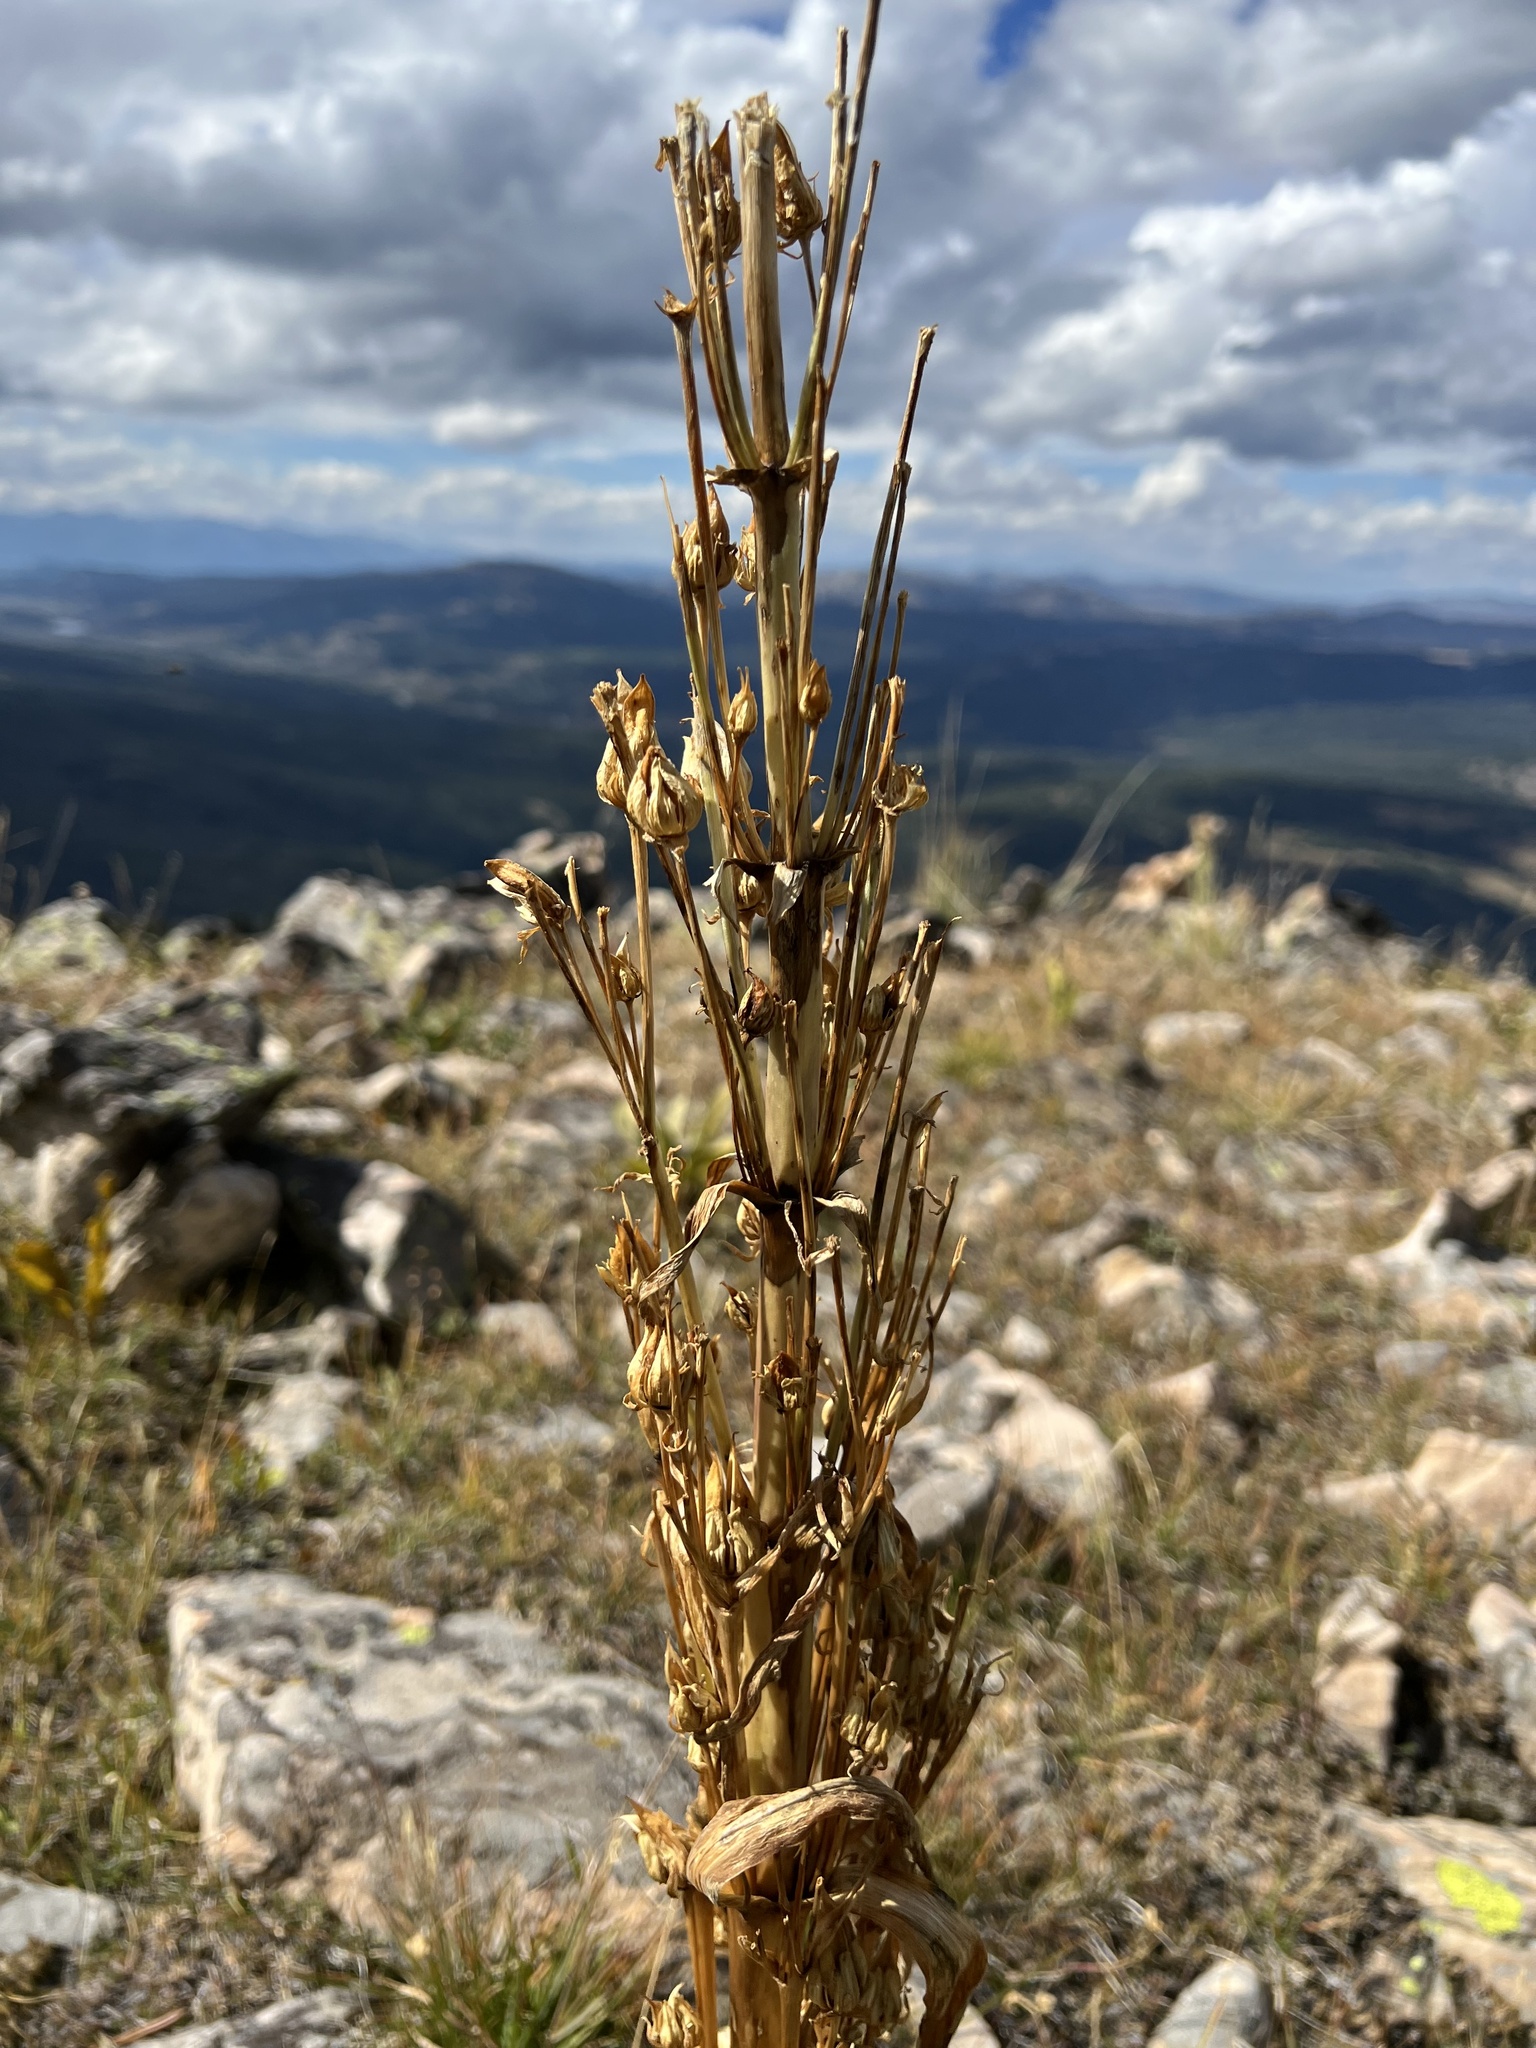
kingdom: Plantae
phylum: Tracheophyta
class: Magnoliopsida
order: Gentianales
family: Gentianaceae
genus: Frasera
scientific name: Frasera speciosa
